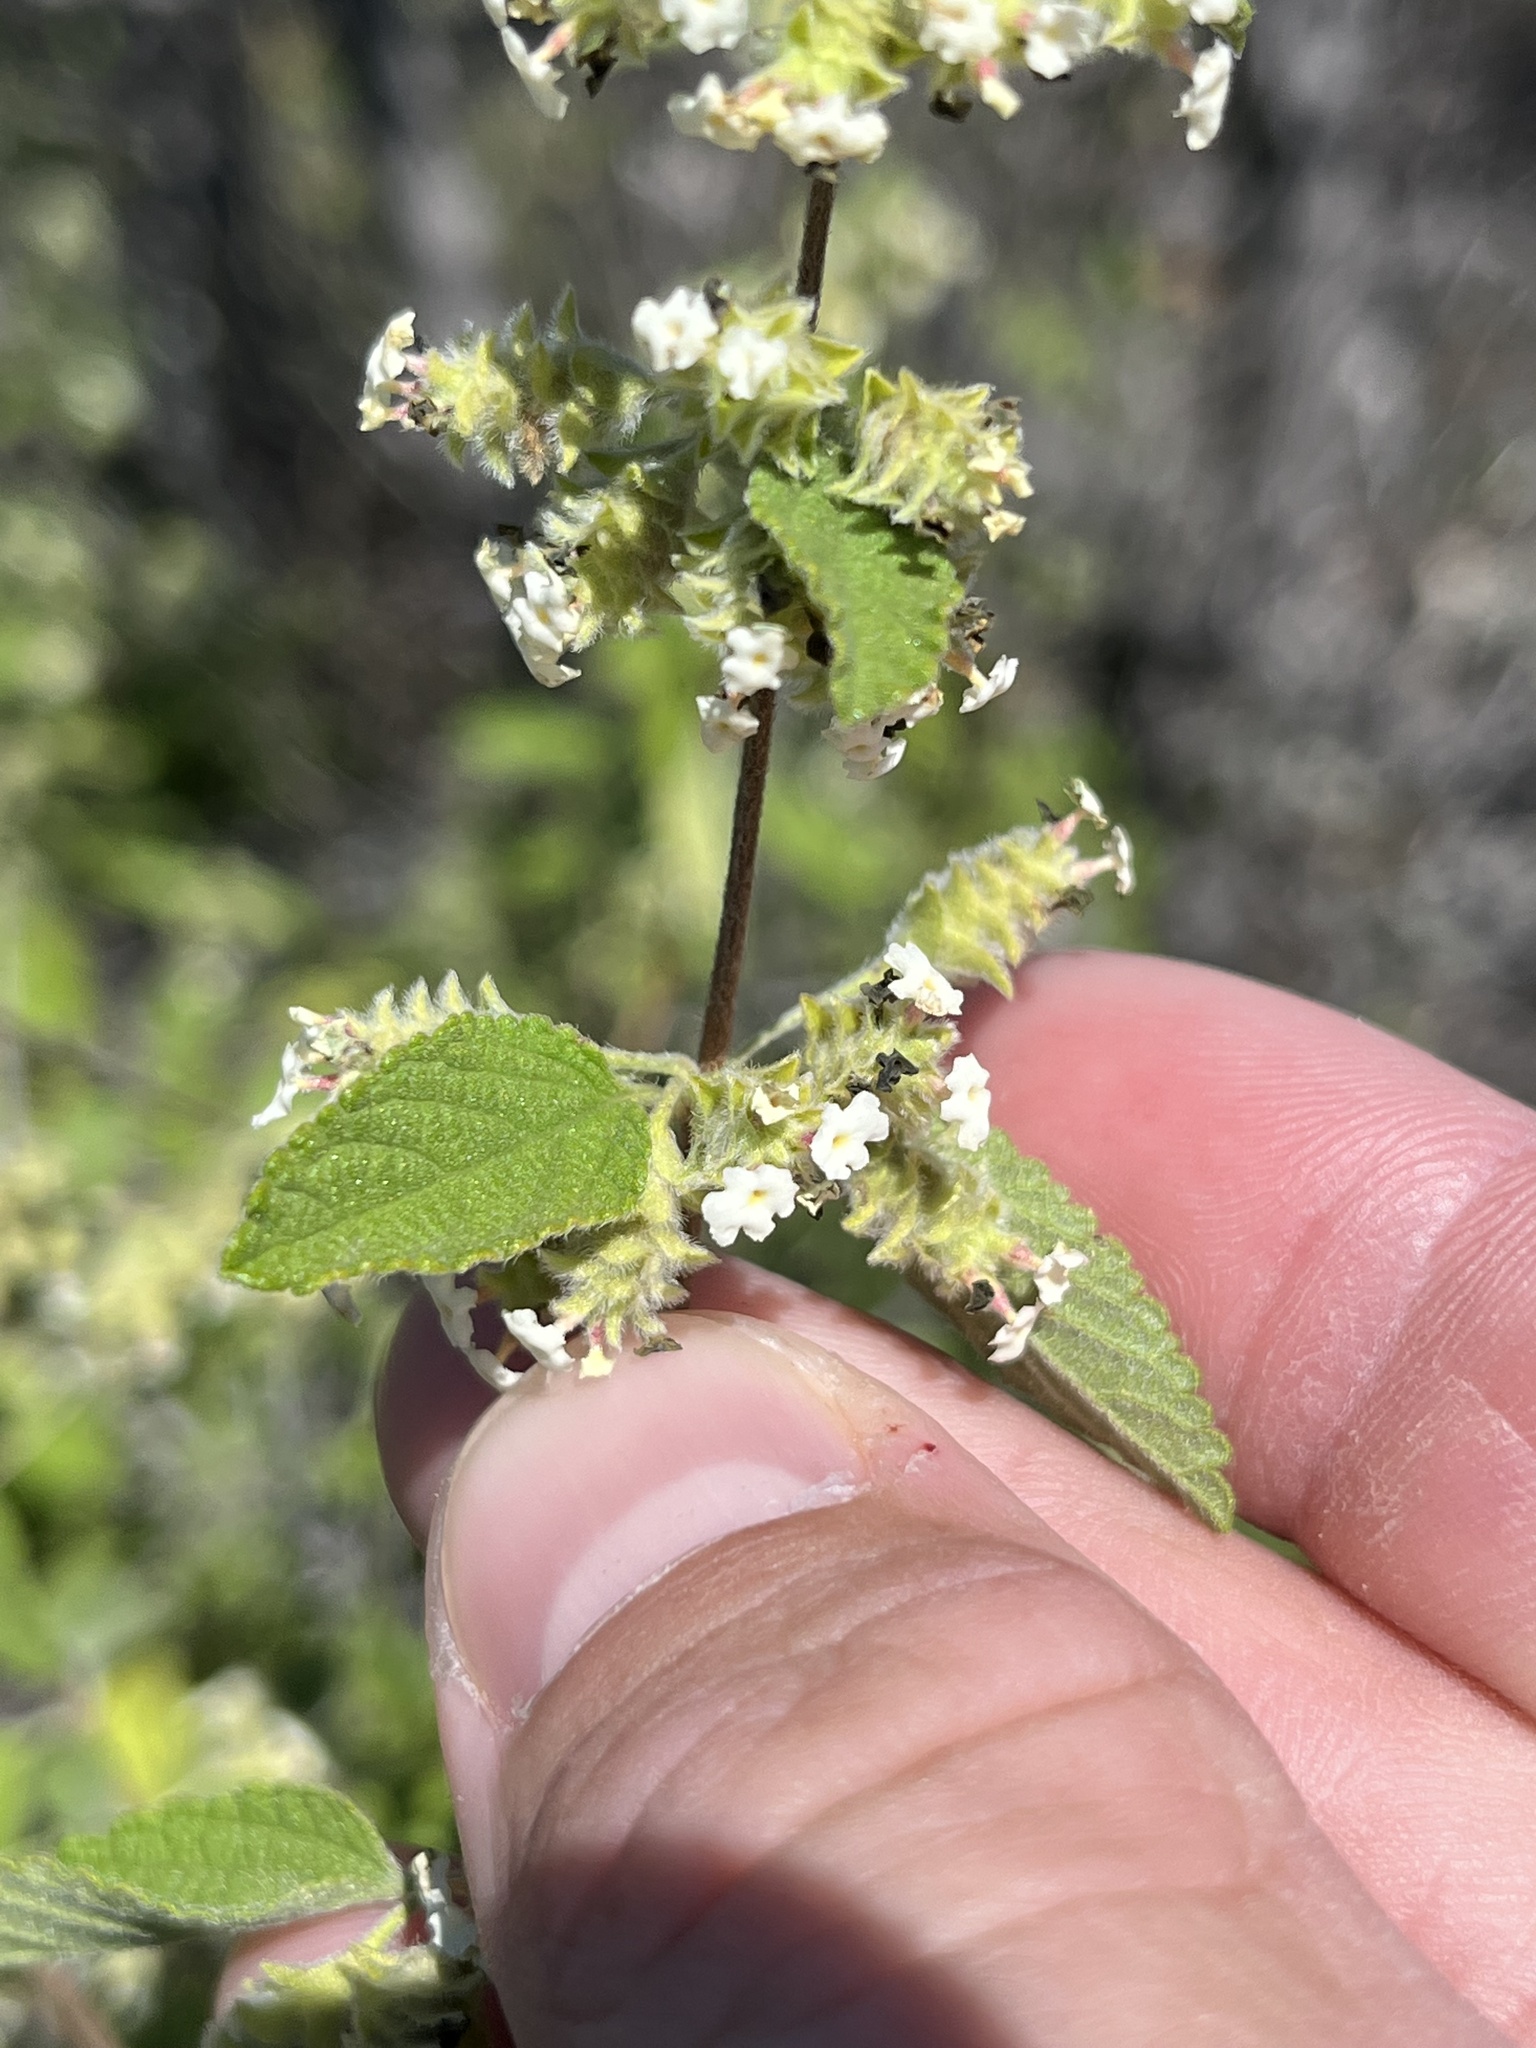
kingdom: Plantae
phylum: Tracheophyta
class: Magnoliopsida
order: Lamiales
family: Verbenaceae
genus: Lippia
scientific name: Lippia origanoides
